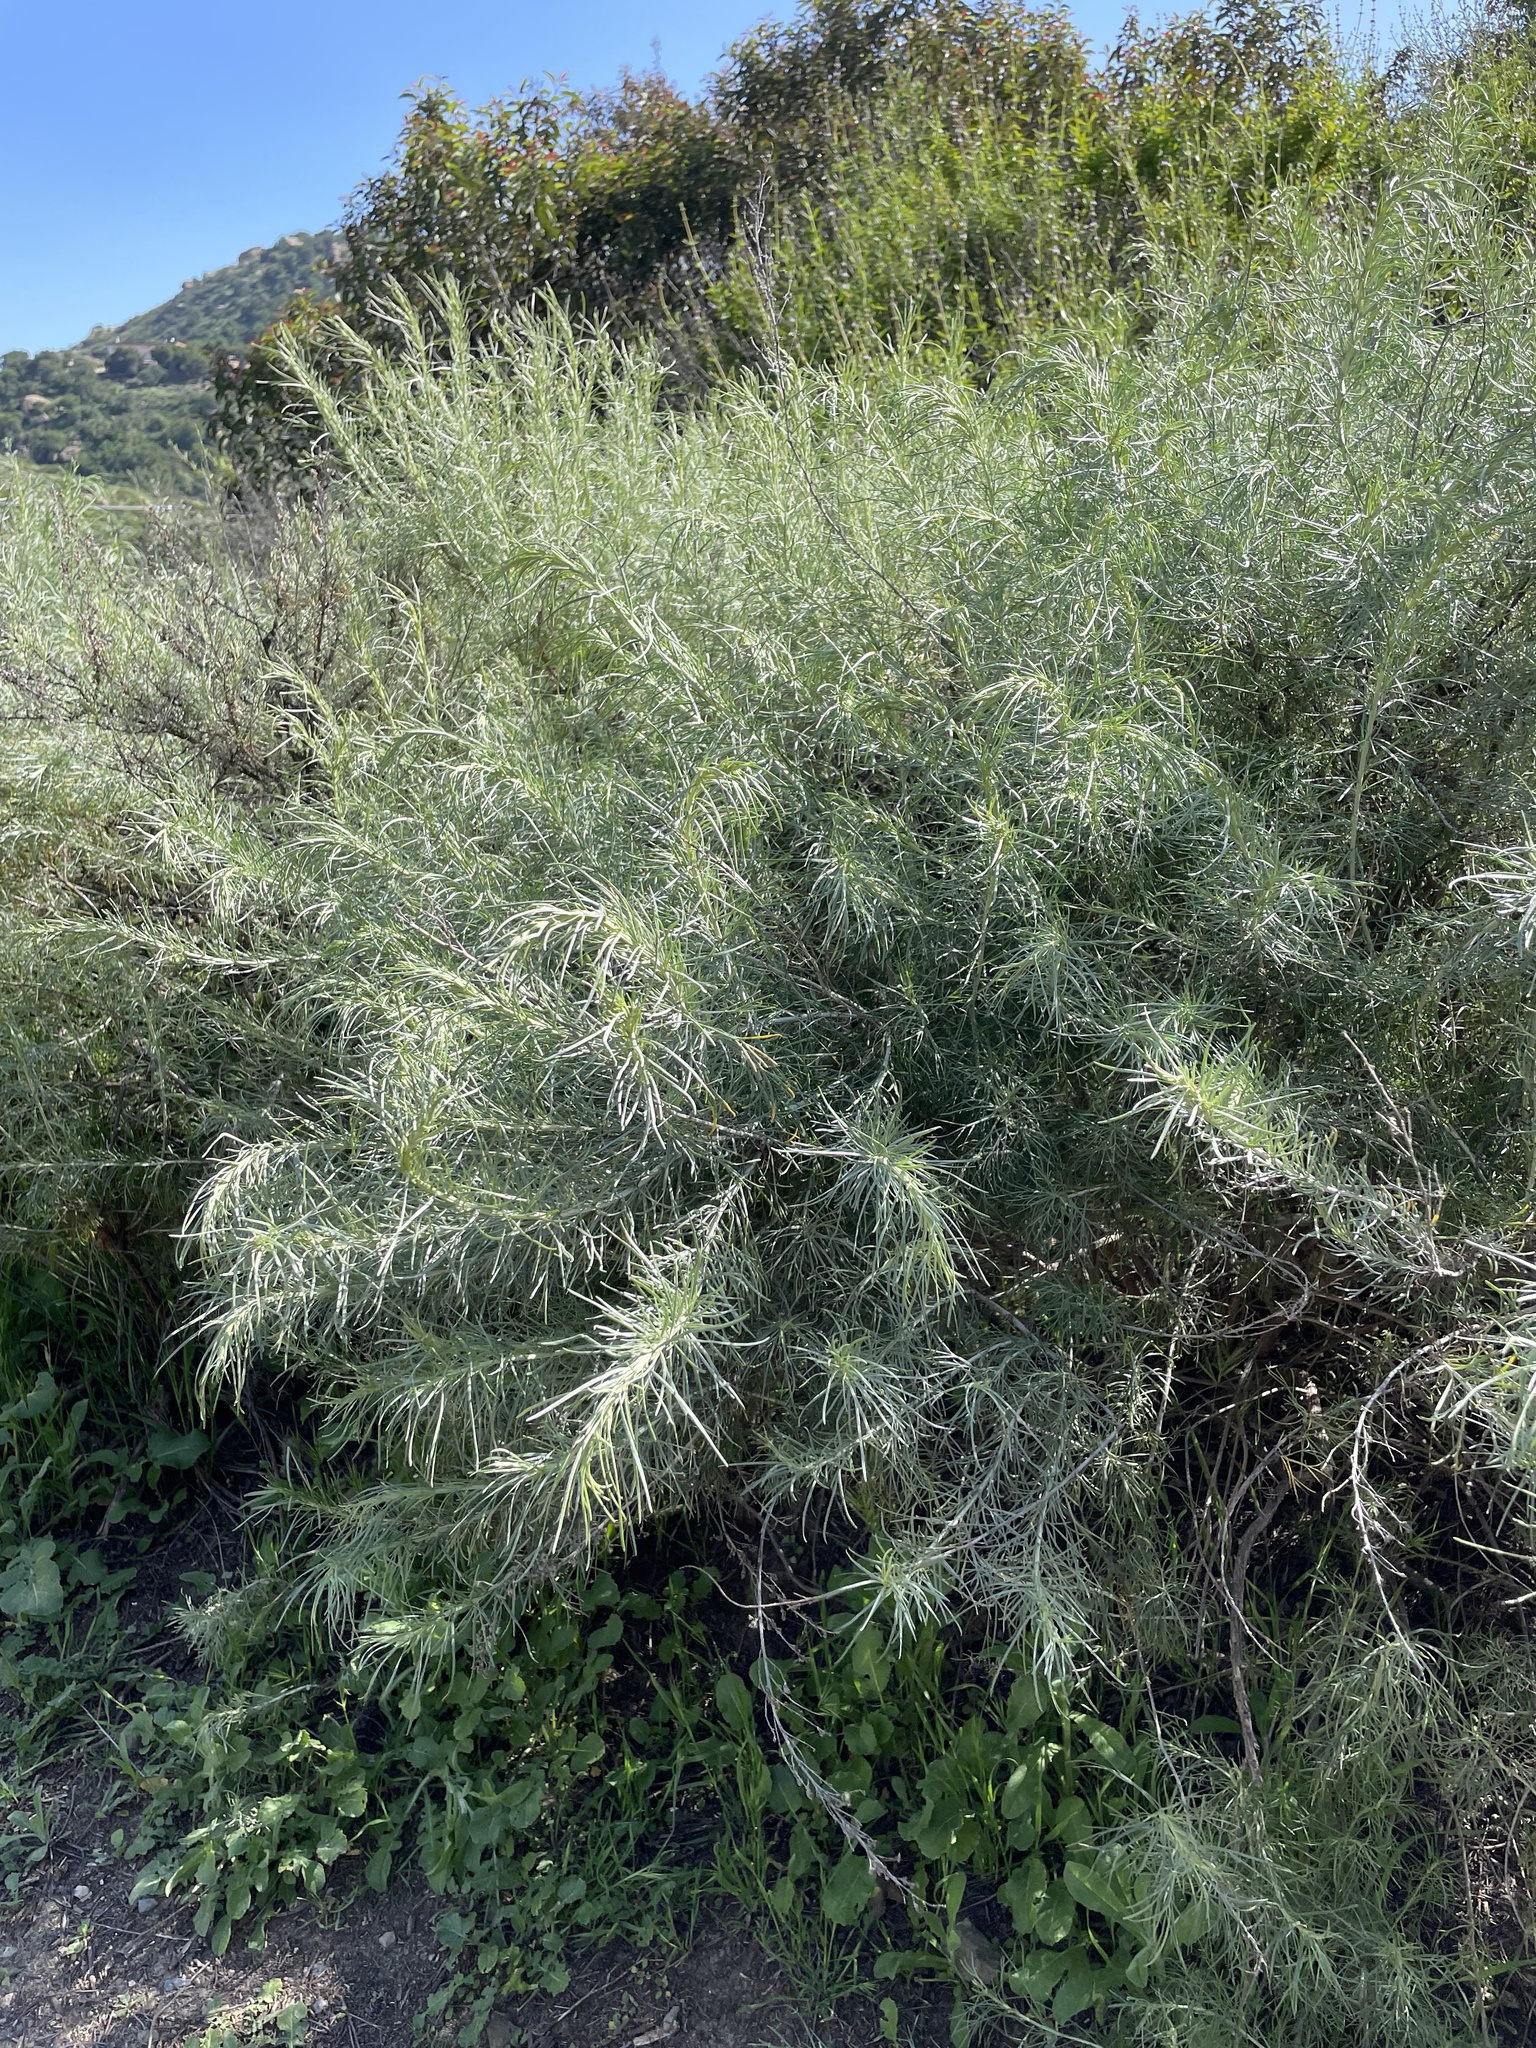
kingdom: Plantae
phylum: Tracheophyta
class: Magnoliopsida
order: Asterales
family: Asteraceae
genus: Artemisia
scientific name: Artemisia californica
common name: California sagebrush
